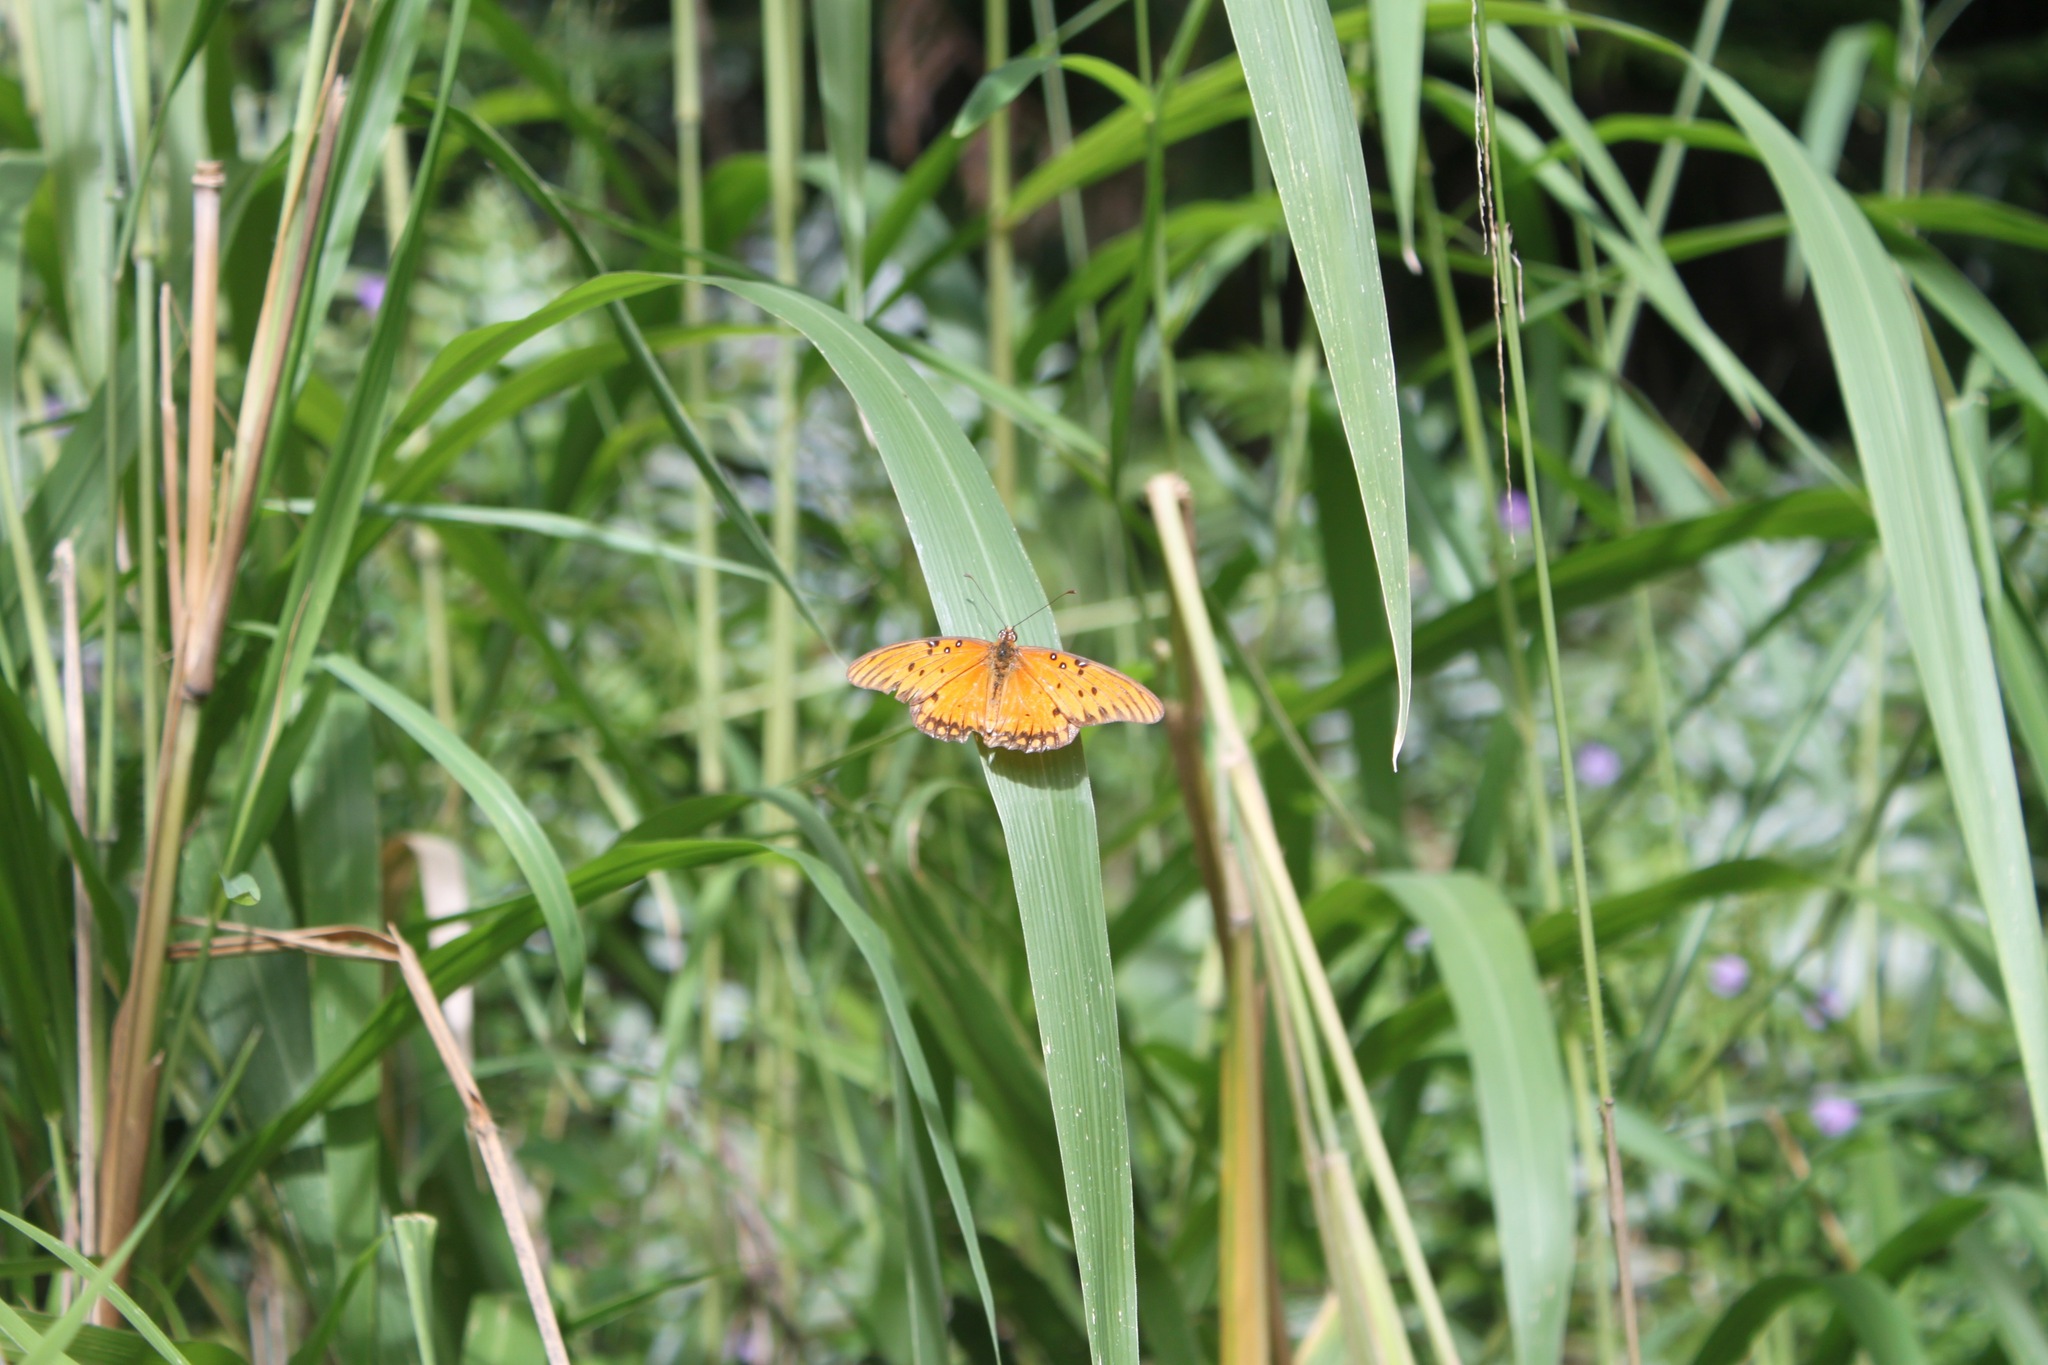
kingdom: Animalia
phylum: Arthropoda
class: Insecta
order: Lepidoptera
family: Nymphalidae
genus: Dione
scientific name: Dione vanillae
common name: Gulf fritillary
